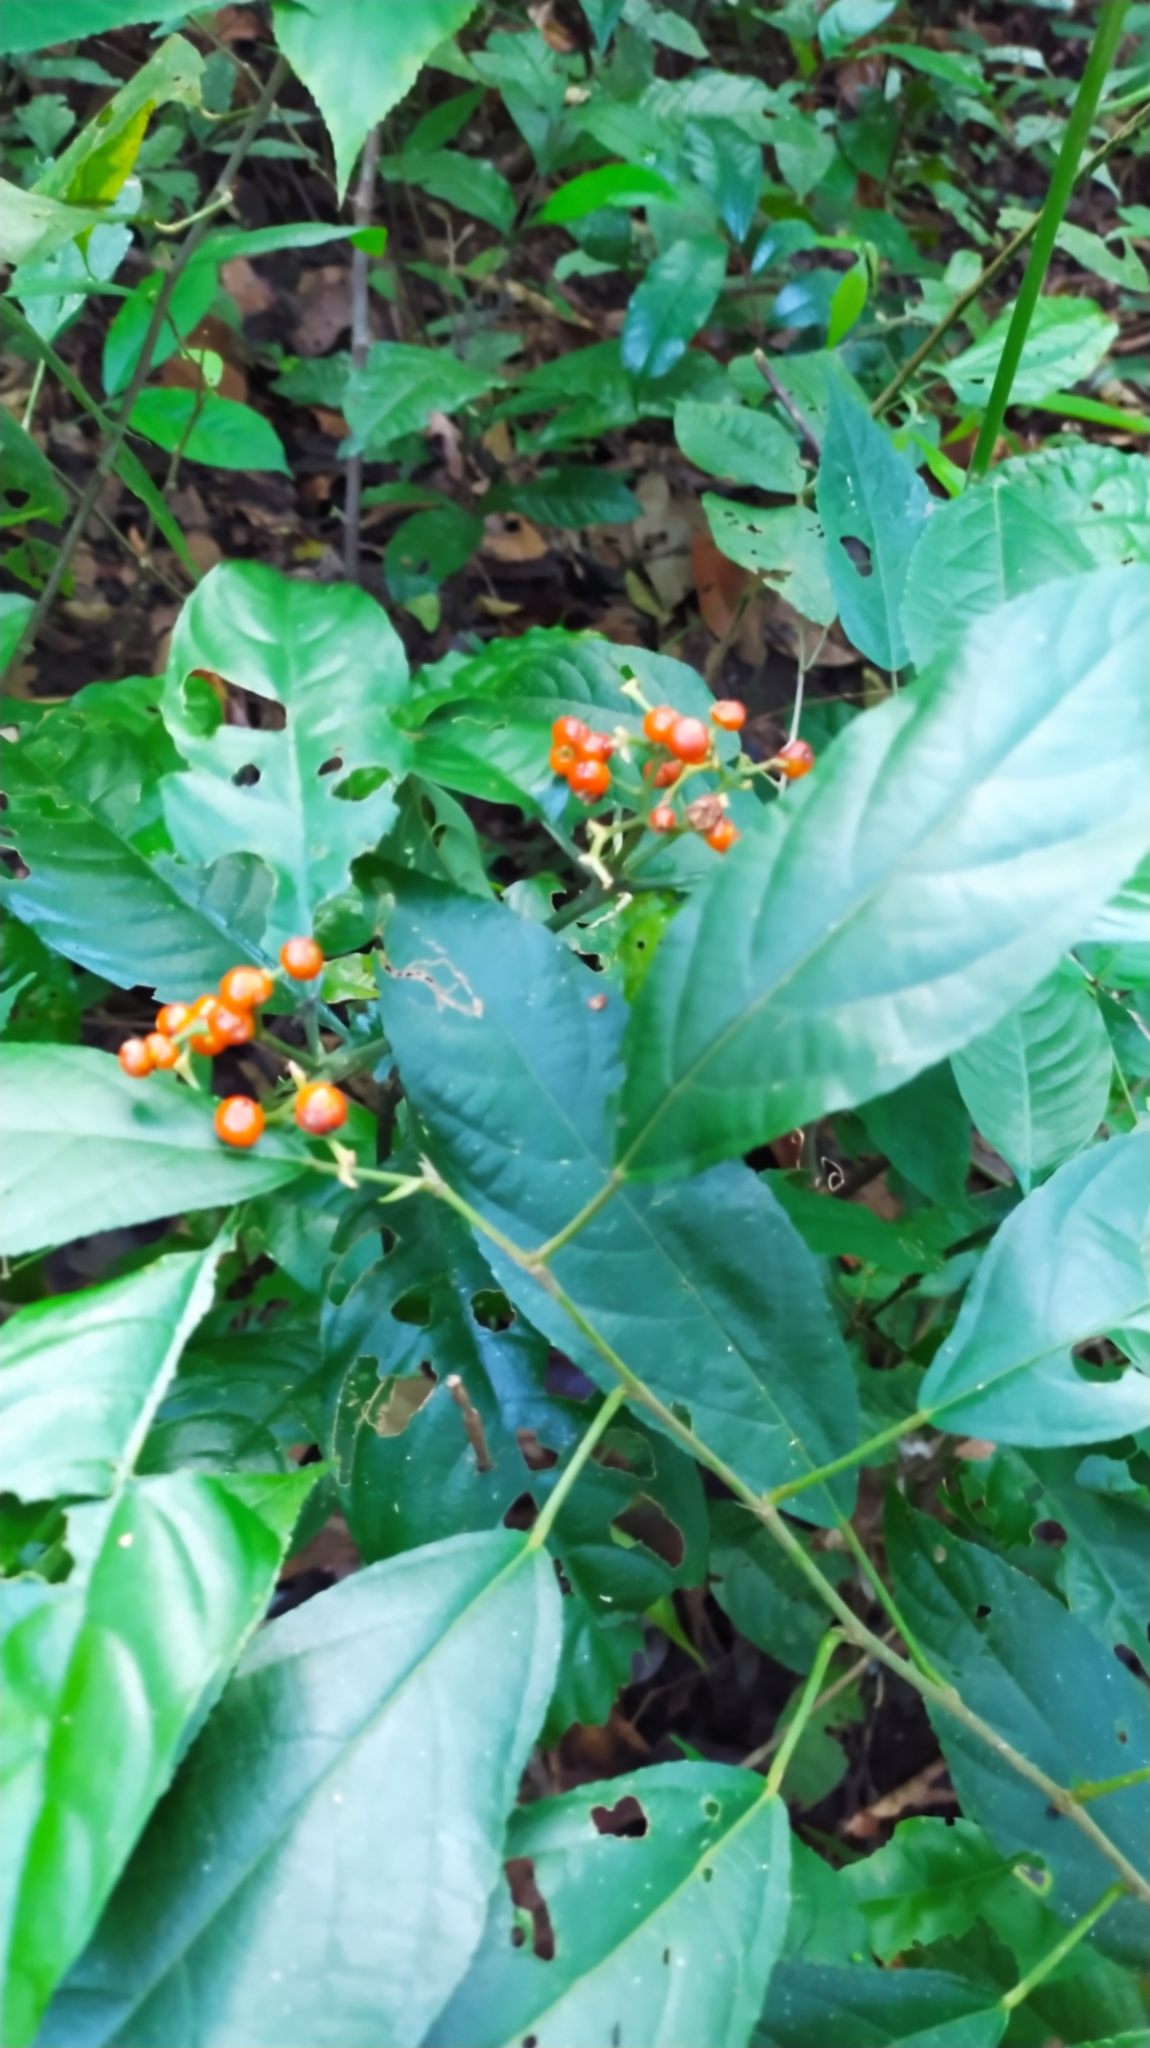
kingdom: Plantae
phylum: Tracheophyta
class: Magnoliopsida
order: Gentianales
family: Rubiaceae
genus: Palicourea
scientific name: Palicourea racemosa
